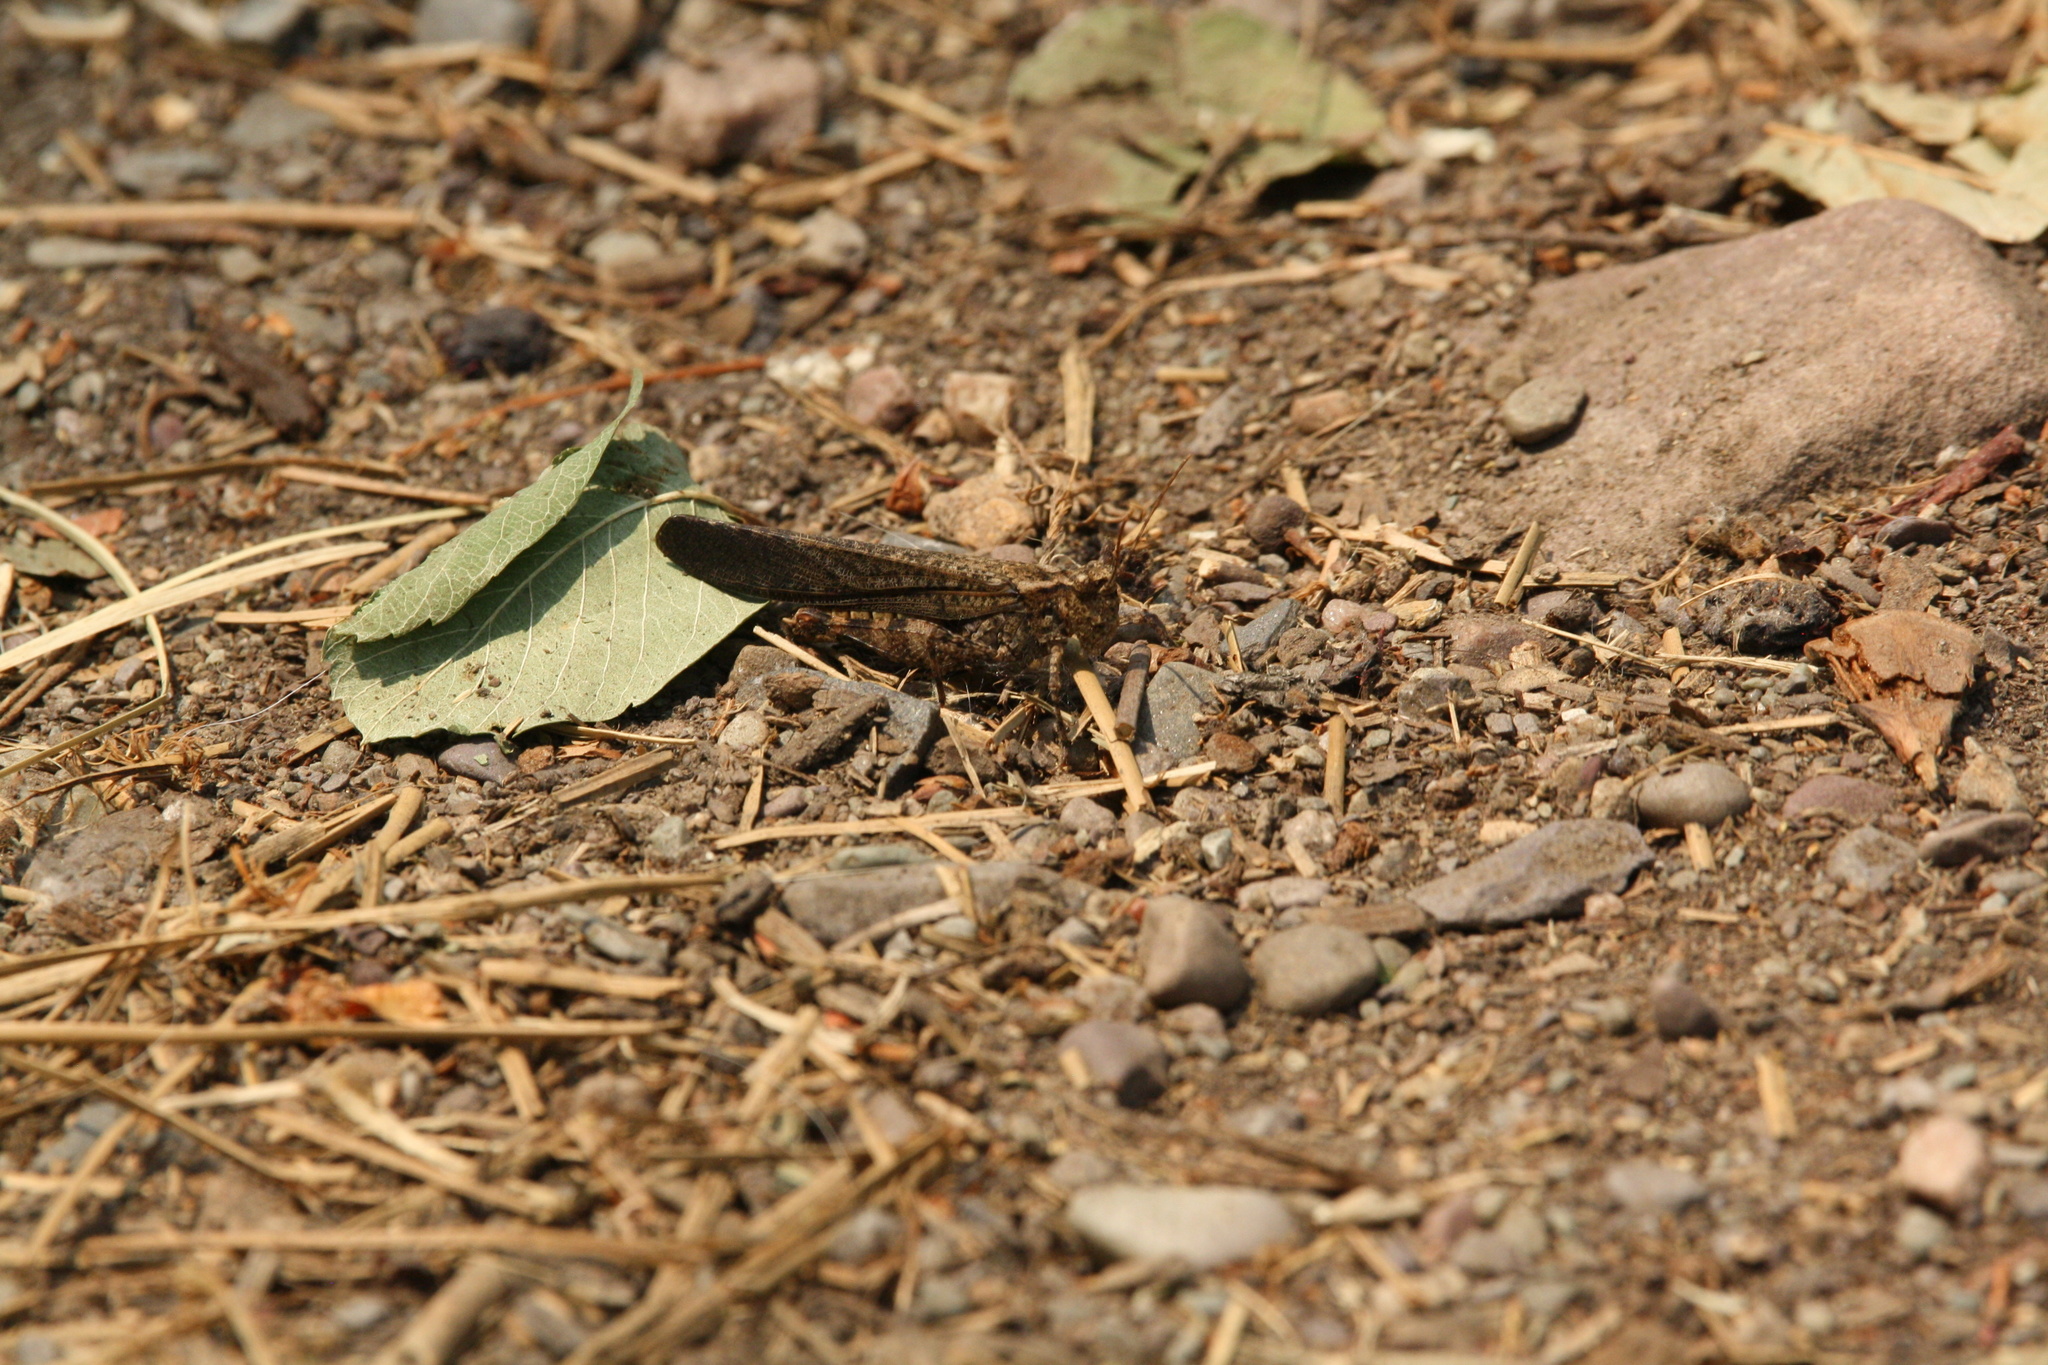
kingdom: Animalia
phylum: Arthropoda
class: Insecta
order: Orthoptera
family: Acrididae
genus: Trimerotropis
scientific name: Trimerotropis verruculata
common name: Crackling forest grasshopper
